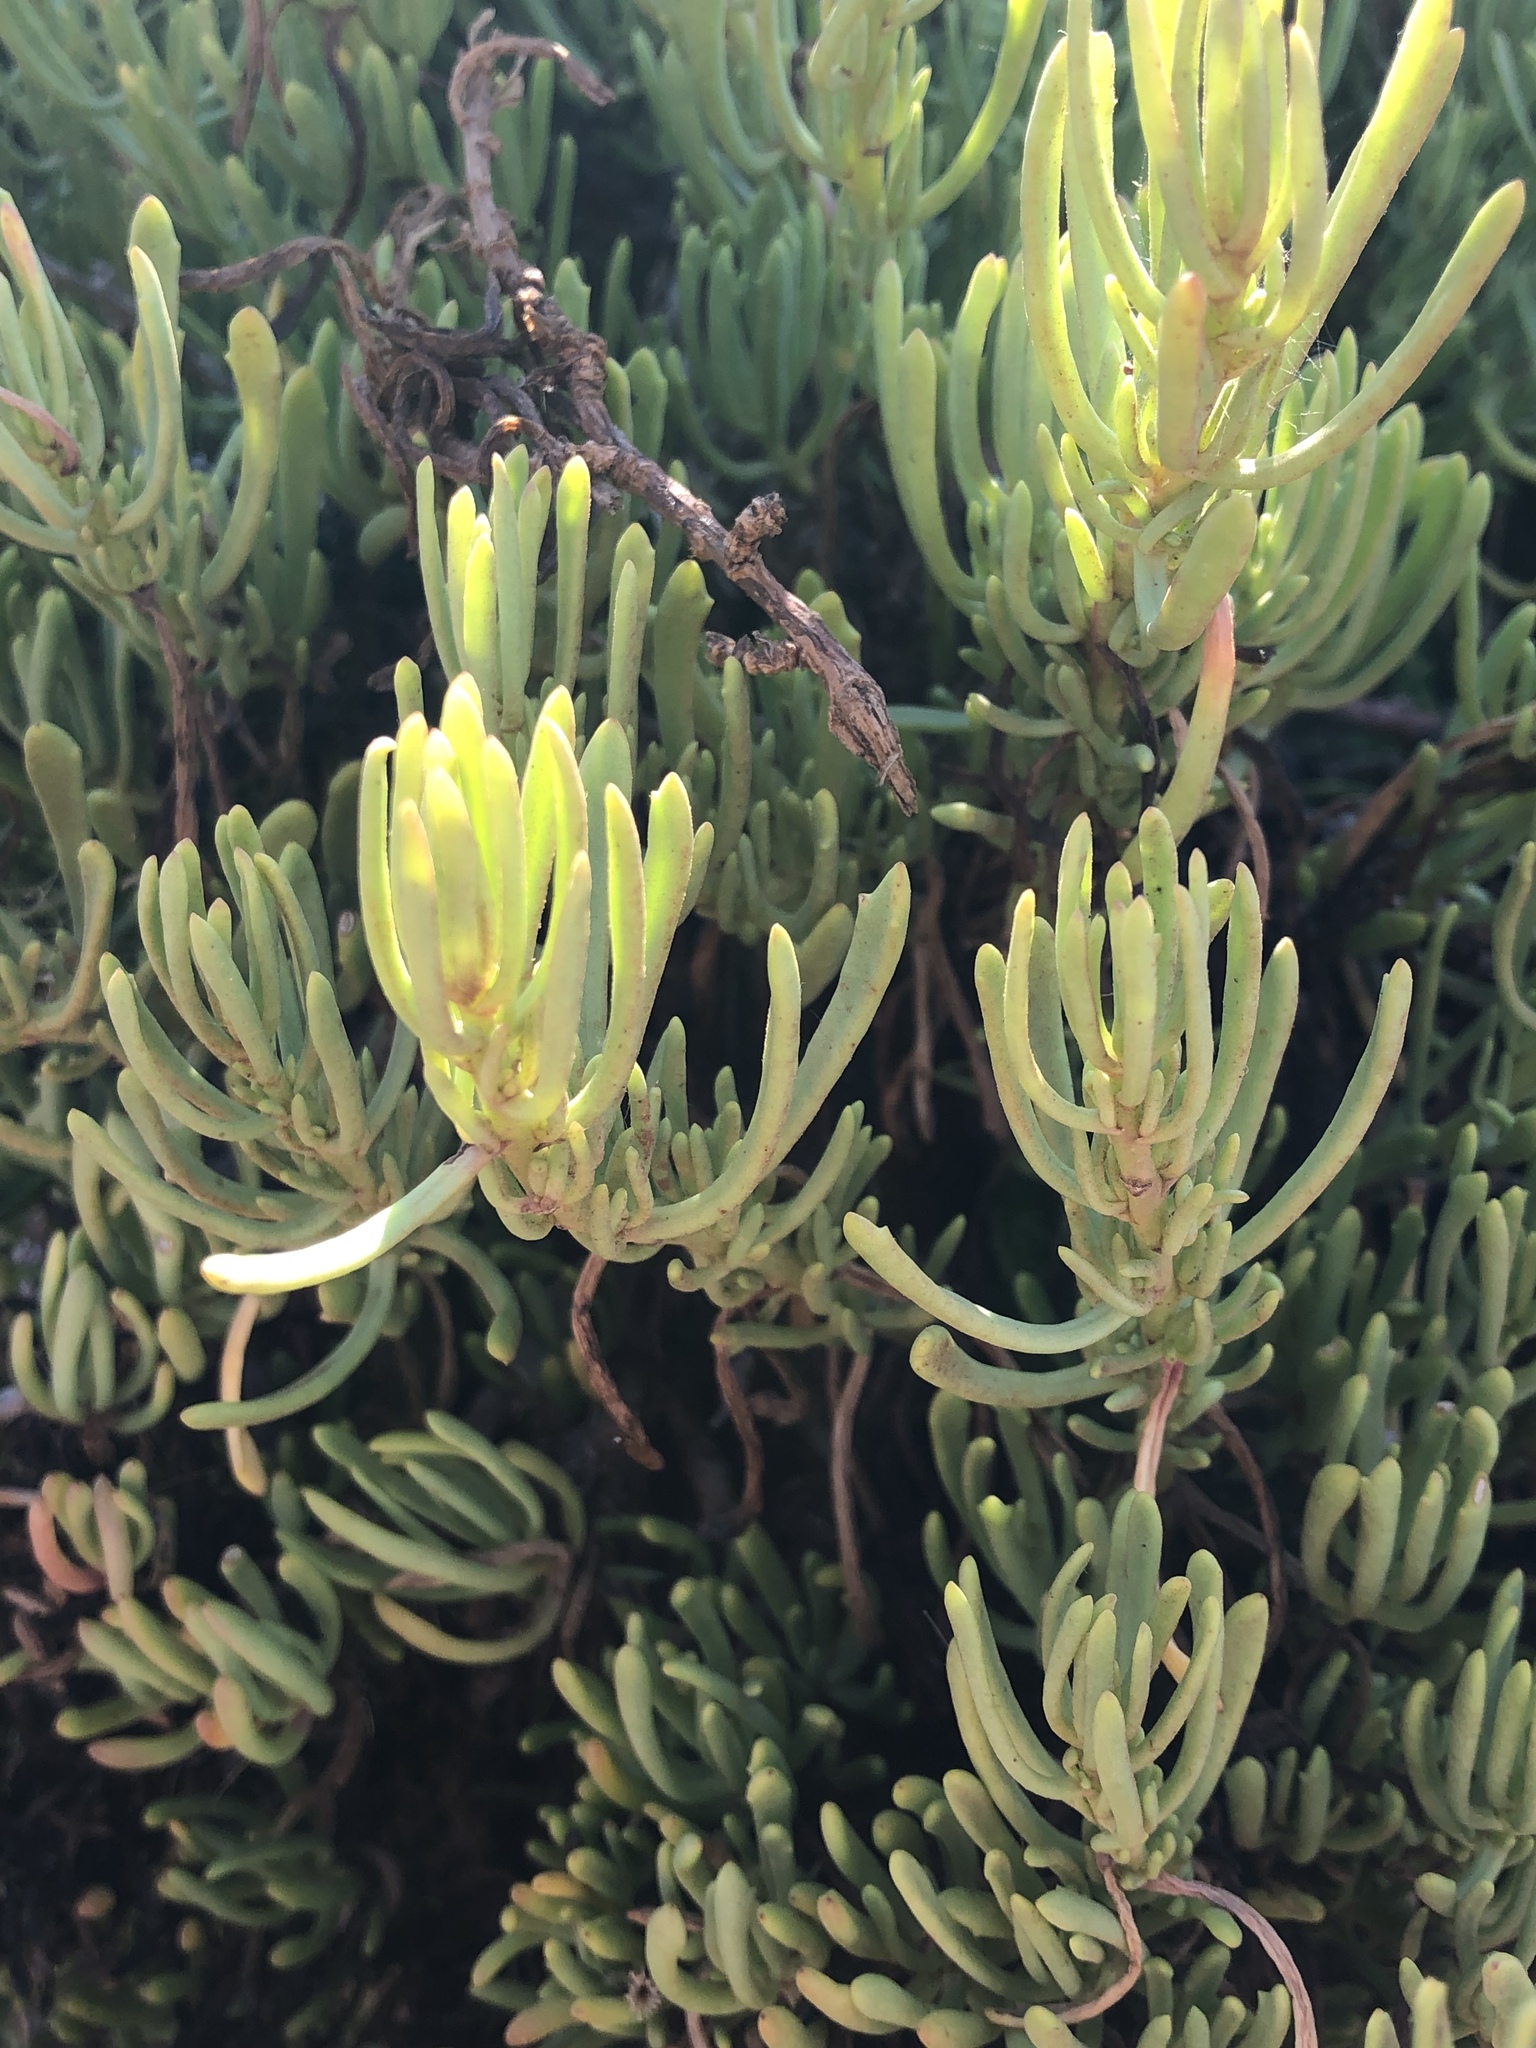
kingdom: Plantae
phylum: Tracheophyta
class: Magnoliopsida
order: Asterales
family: Asteraceae
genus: Limbarda
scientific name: Limbarda crithmoides
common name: Golden samphire
